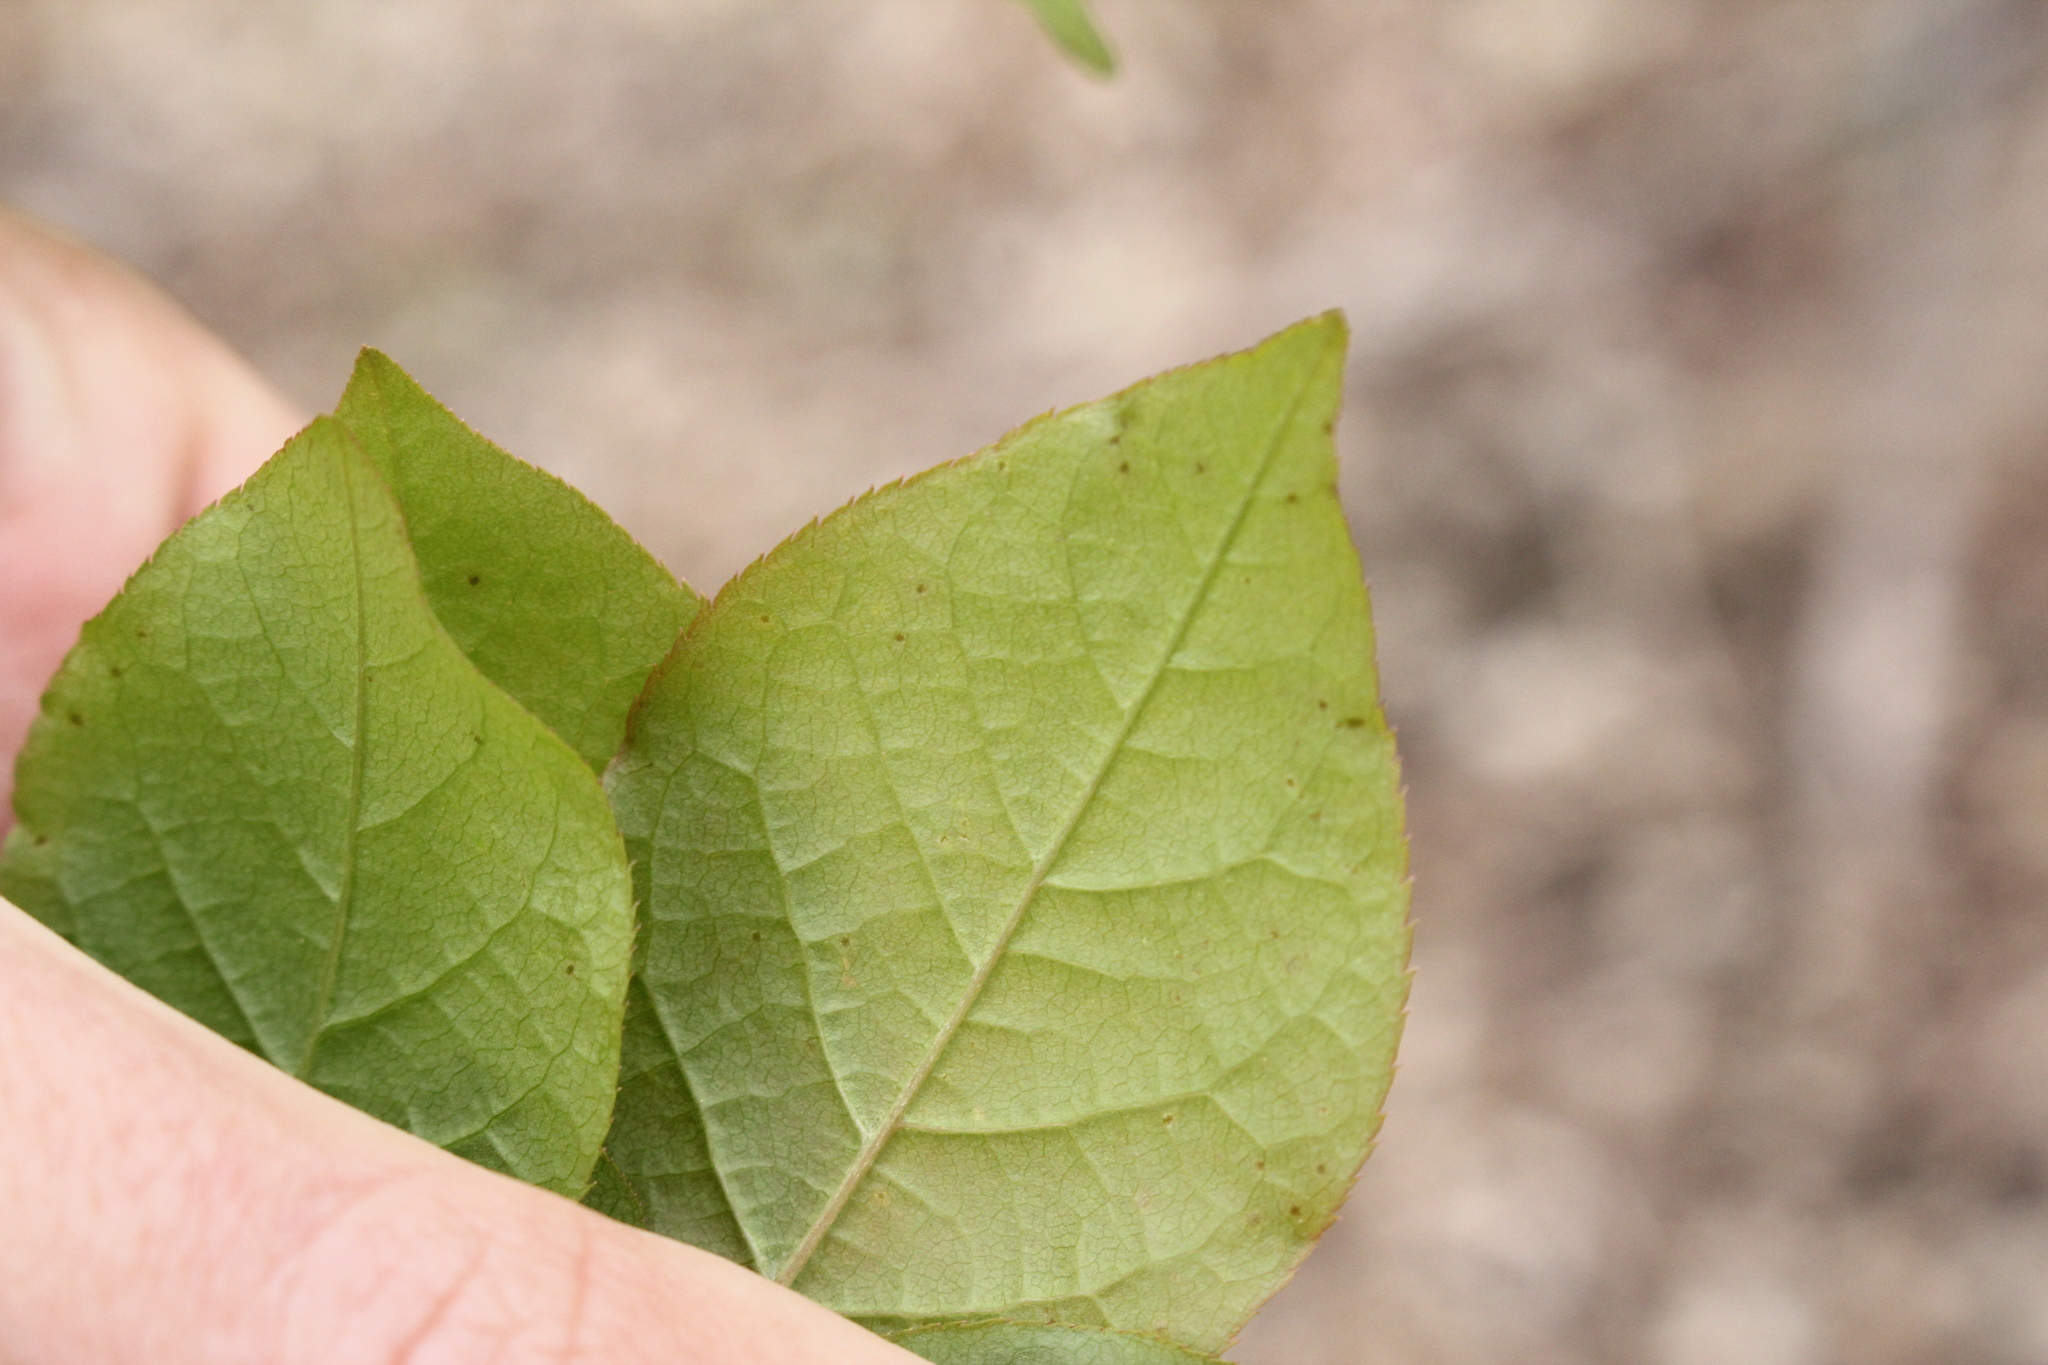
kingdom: Plantae
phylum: Tracheophyta
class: Magnoliopsida
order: Rosales
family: Rosaceae
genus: Prunus
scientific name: Prunus virginiana
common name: Chokecherry
